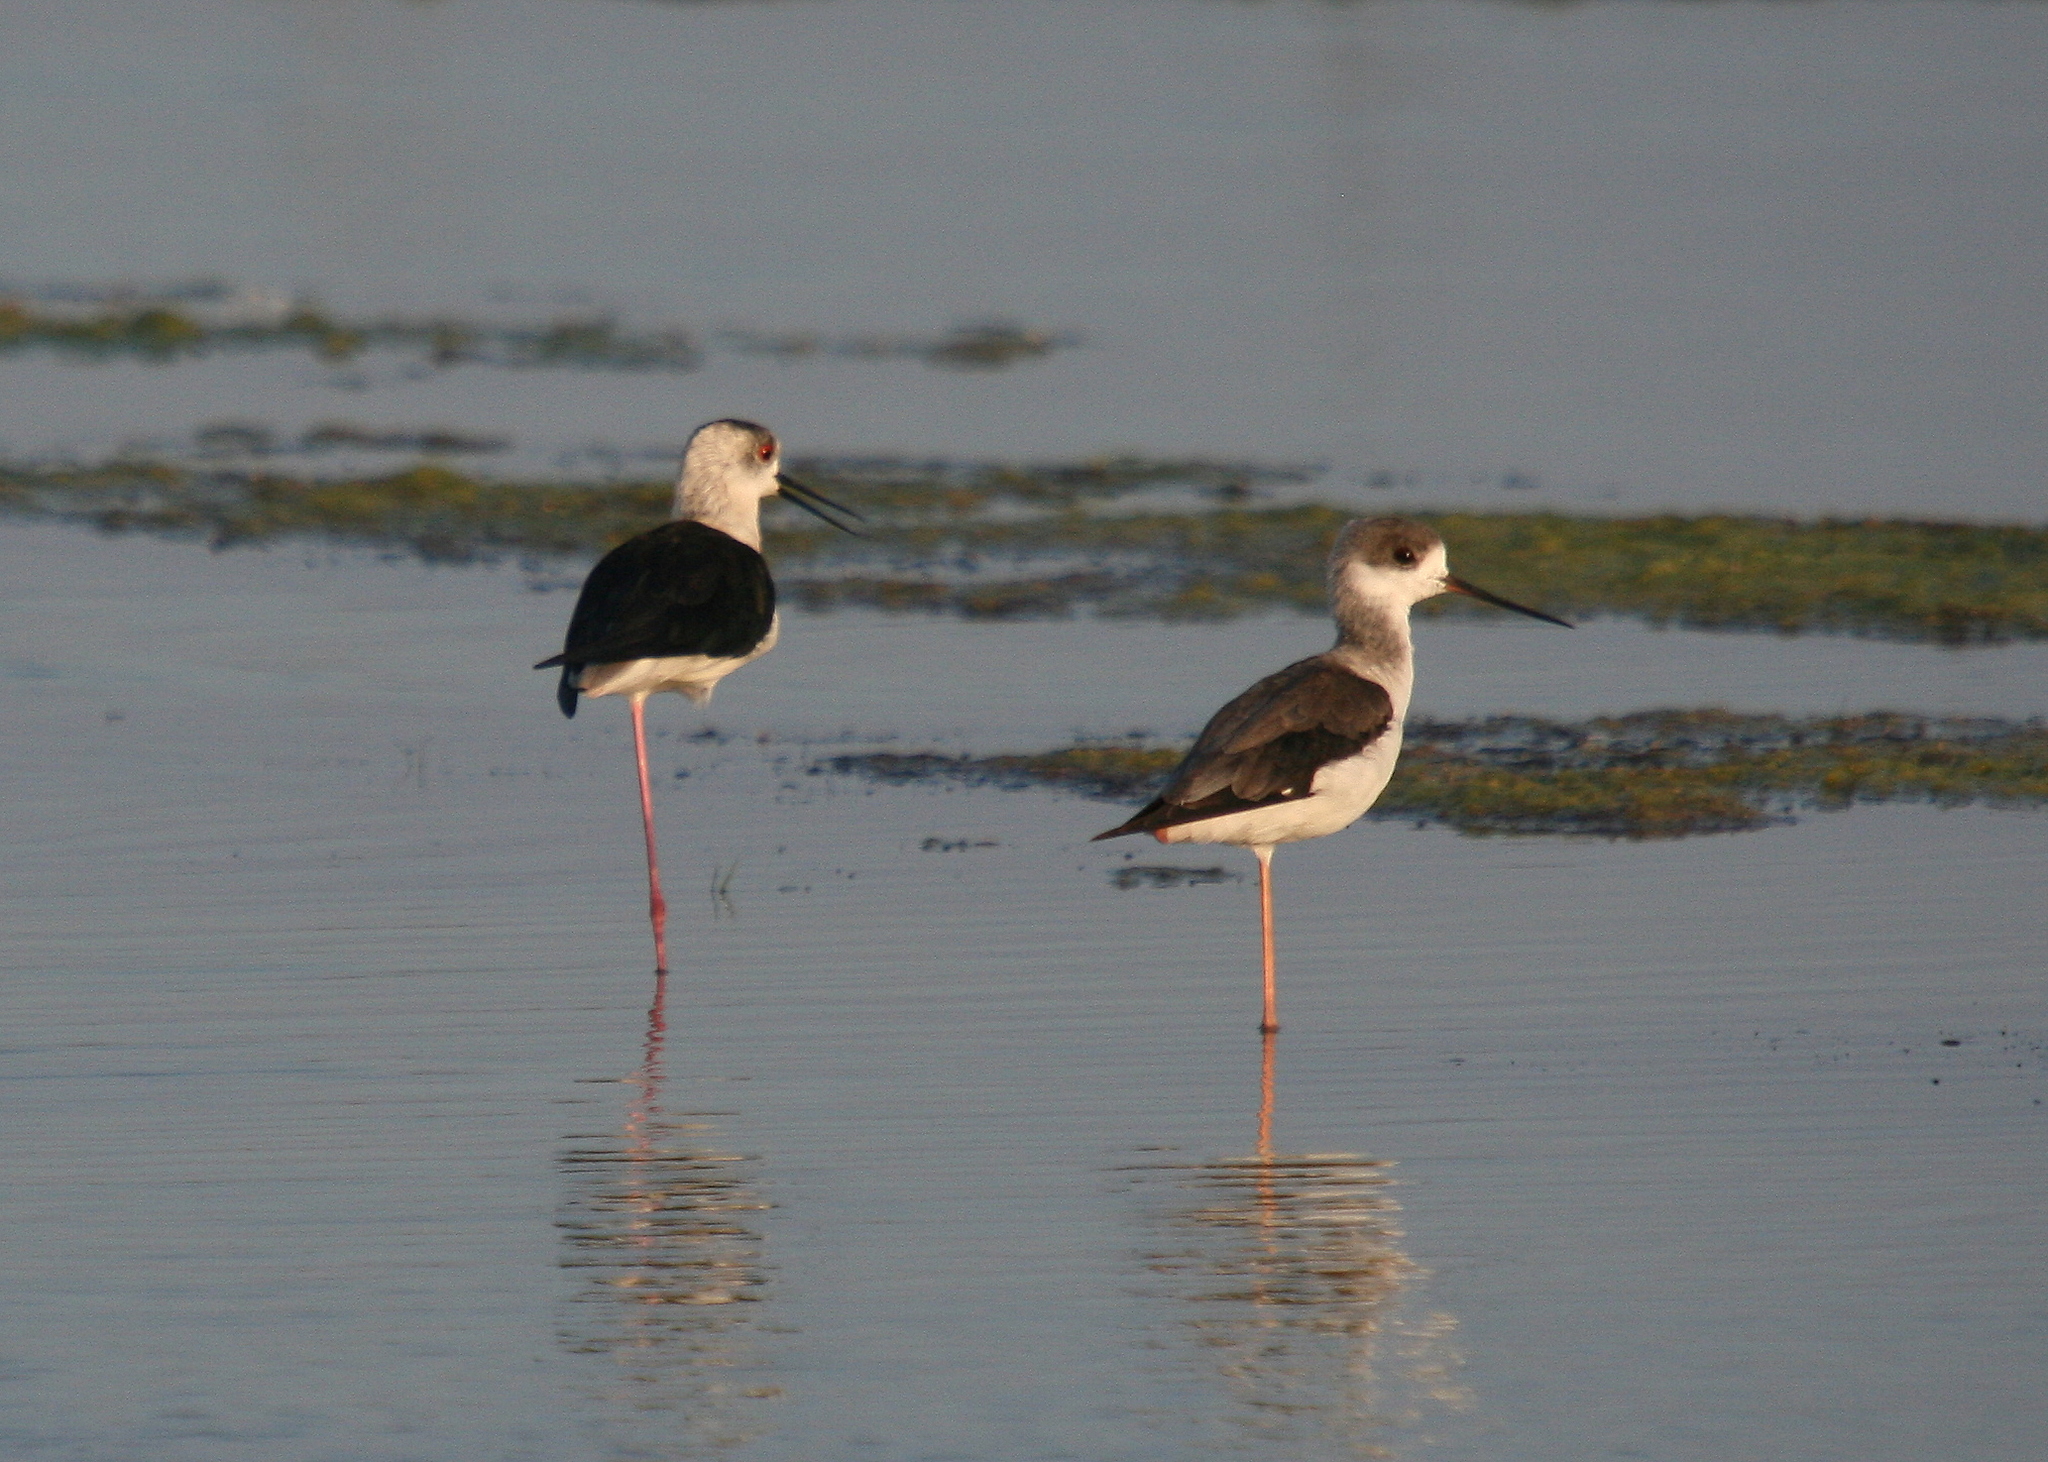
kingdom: Animalia
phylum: Chordata
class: Aves
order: Charadriiformes
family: Recurvirostridae
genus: Himantopus
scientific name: Himantopus himantopus
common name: Black-winged stilt
